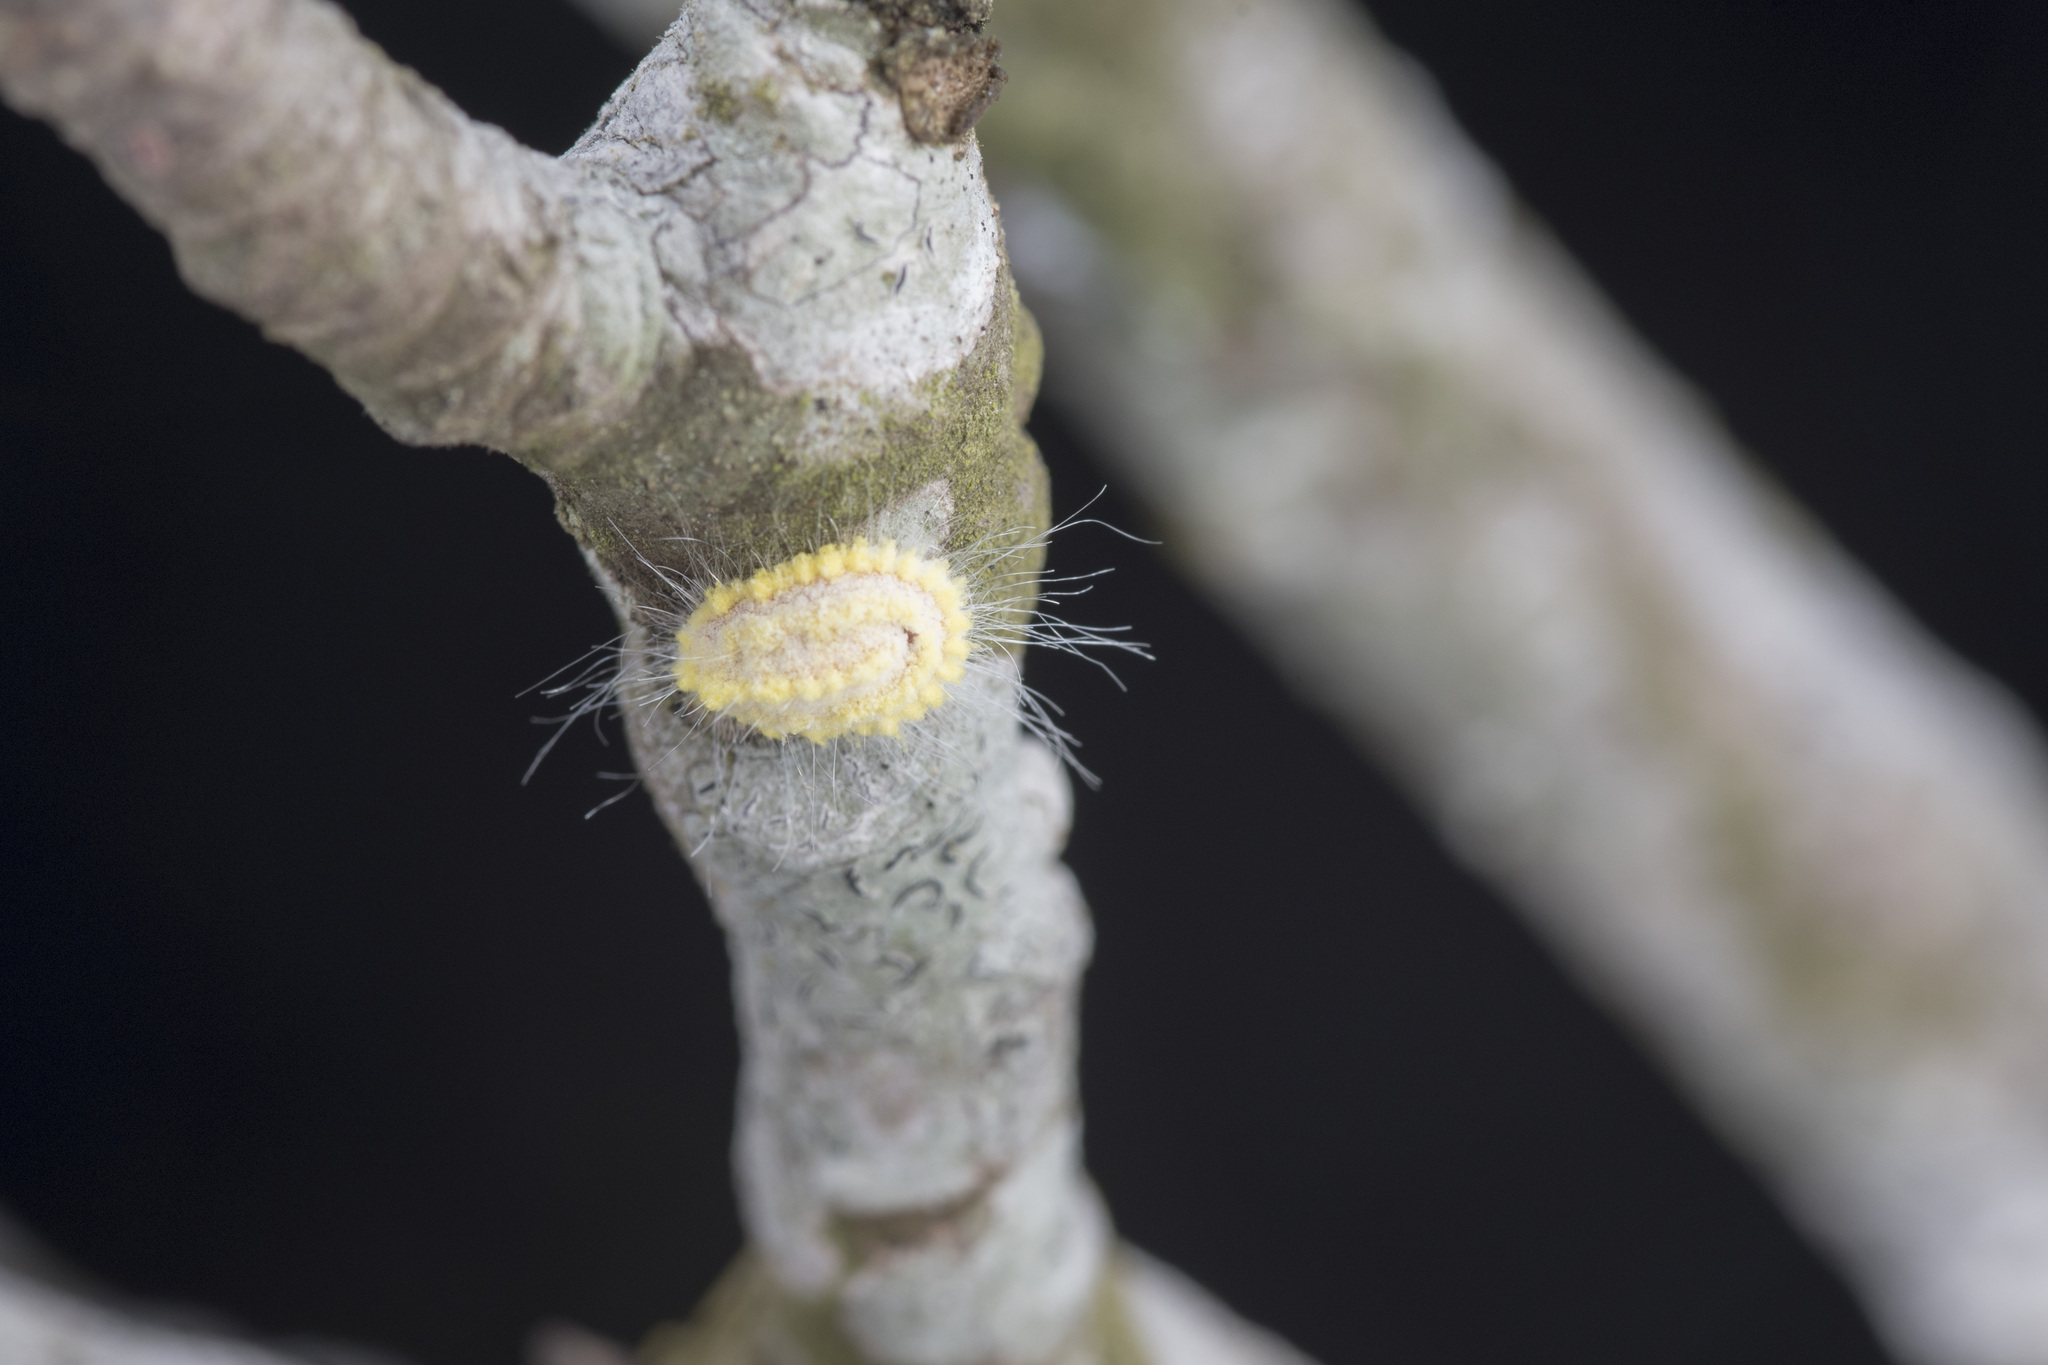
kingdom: Animalia
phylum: Arthropoda
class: Insecta
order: Hemiptera
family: Margarodidae
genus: Icerya
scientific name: Icerya seychellarum
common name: Iceplant scale
